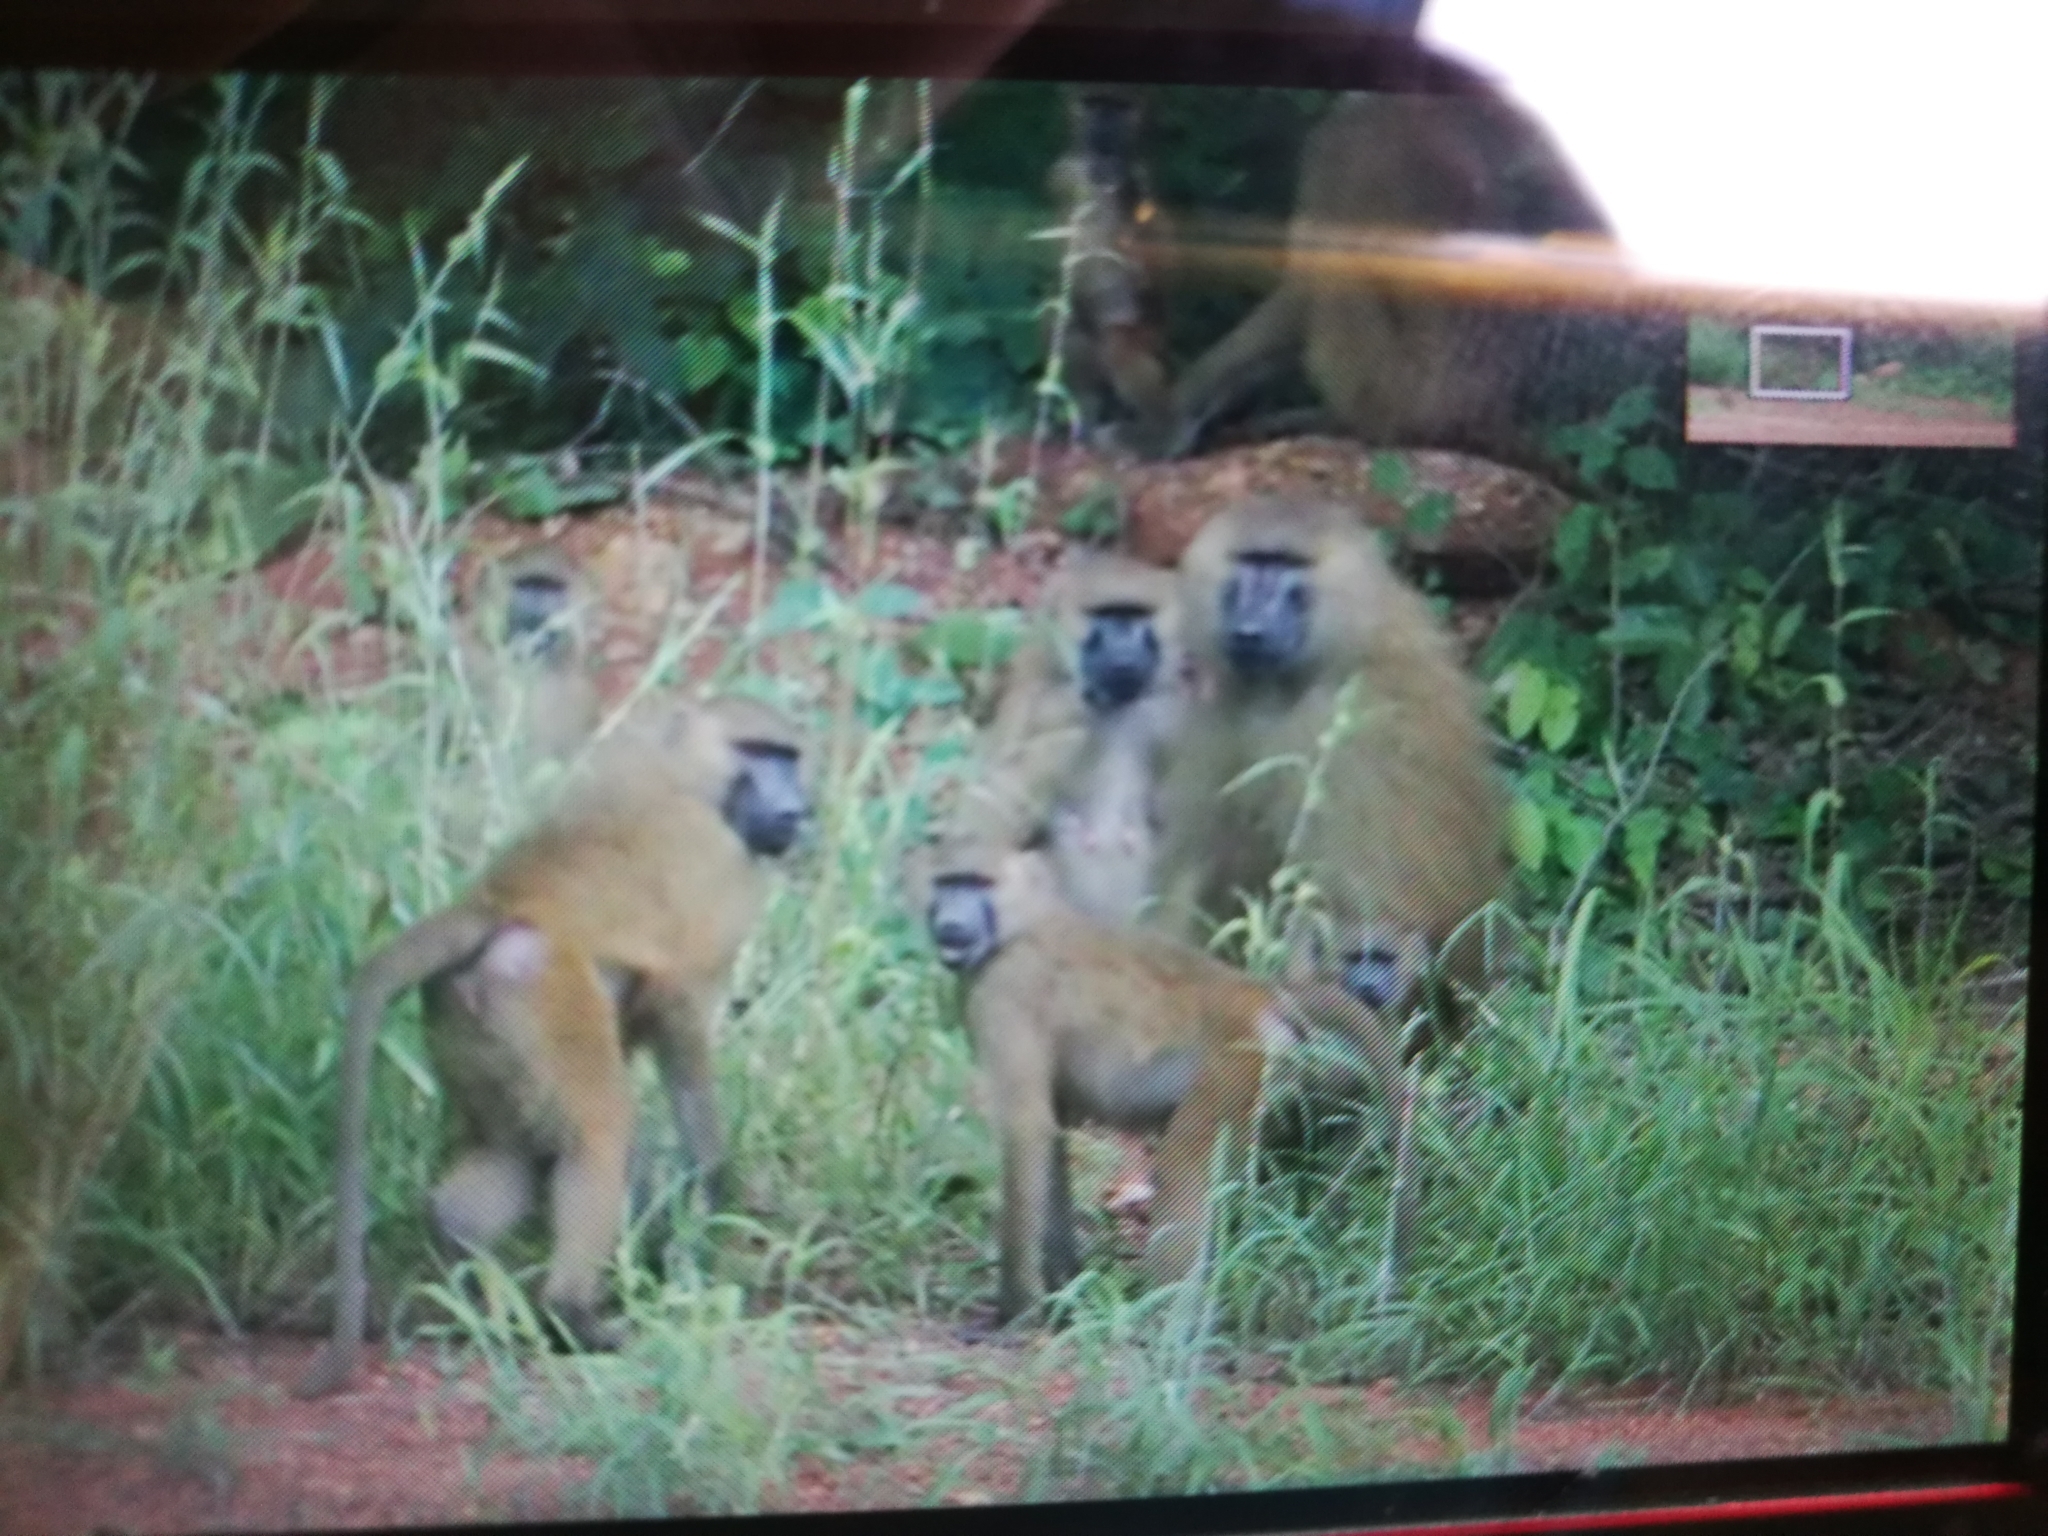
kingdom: Animalia
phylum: Chordata
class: Mammalia
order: Primates
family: Cercopithecidae
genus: Papio
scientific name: Papio papio
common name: Guinea baboon
